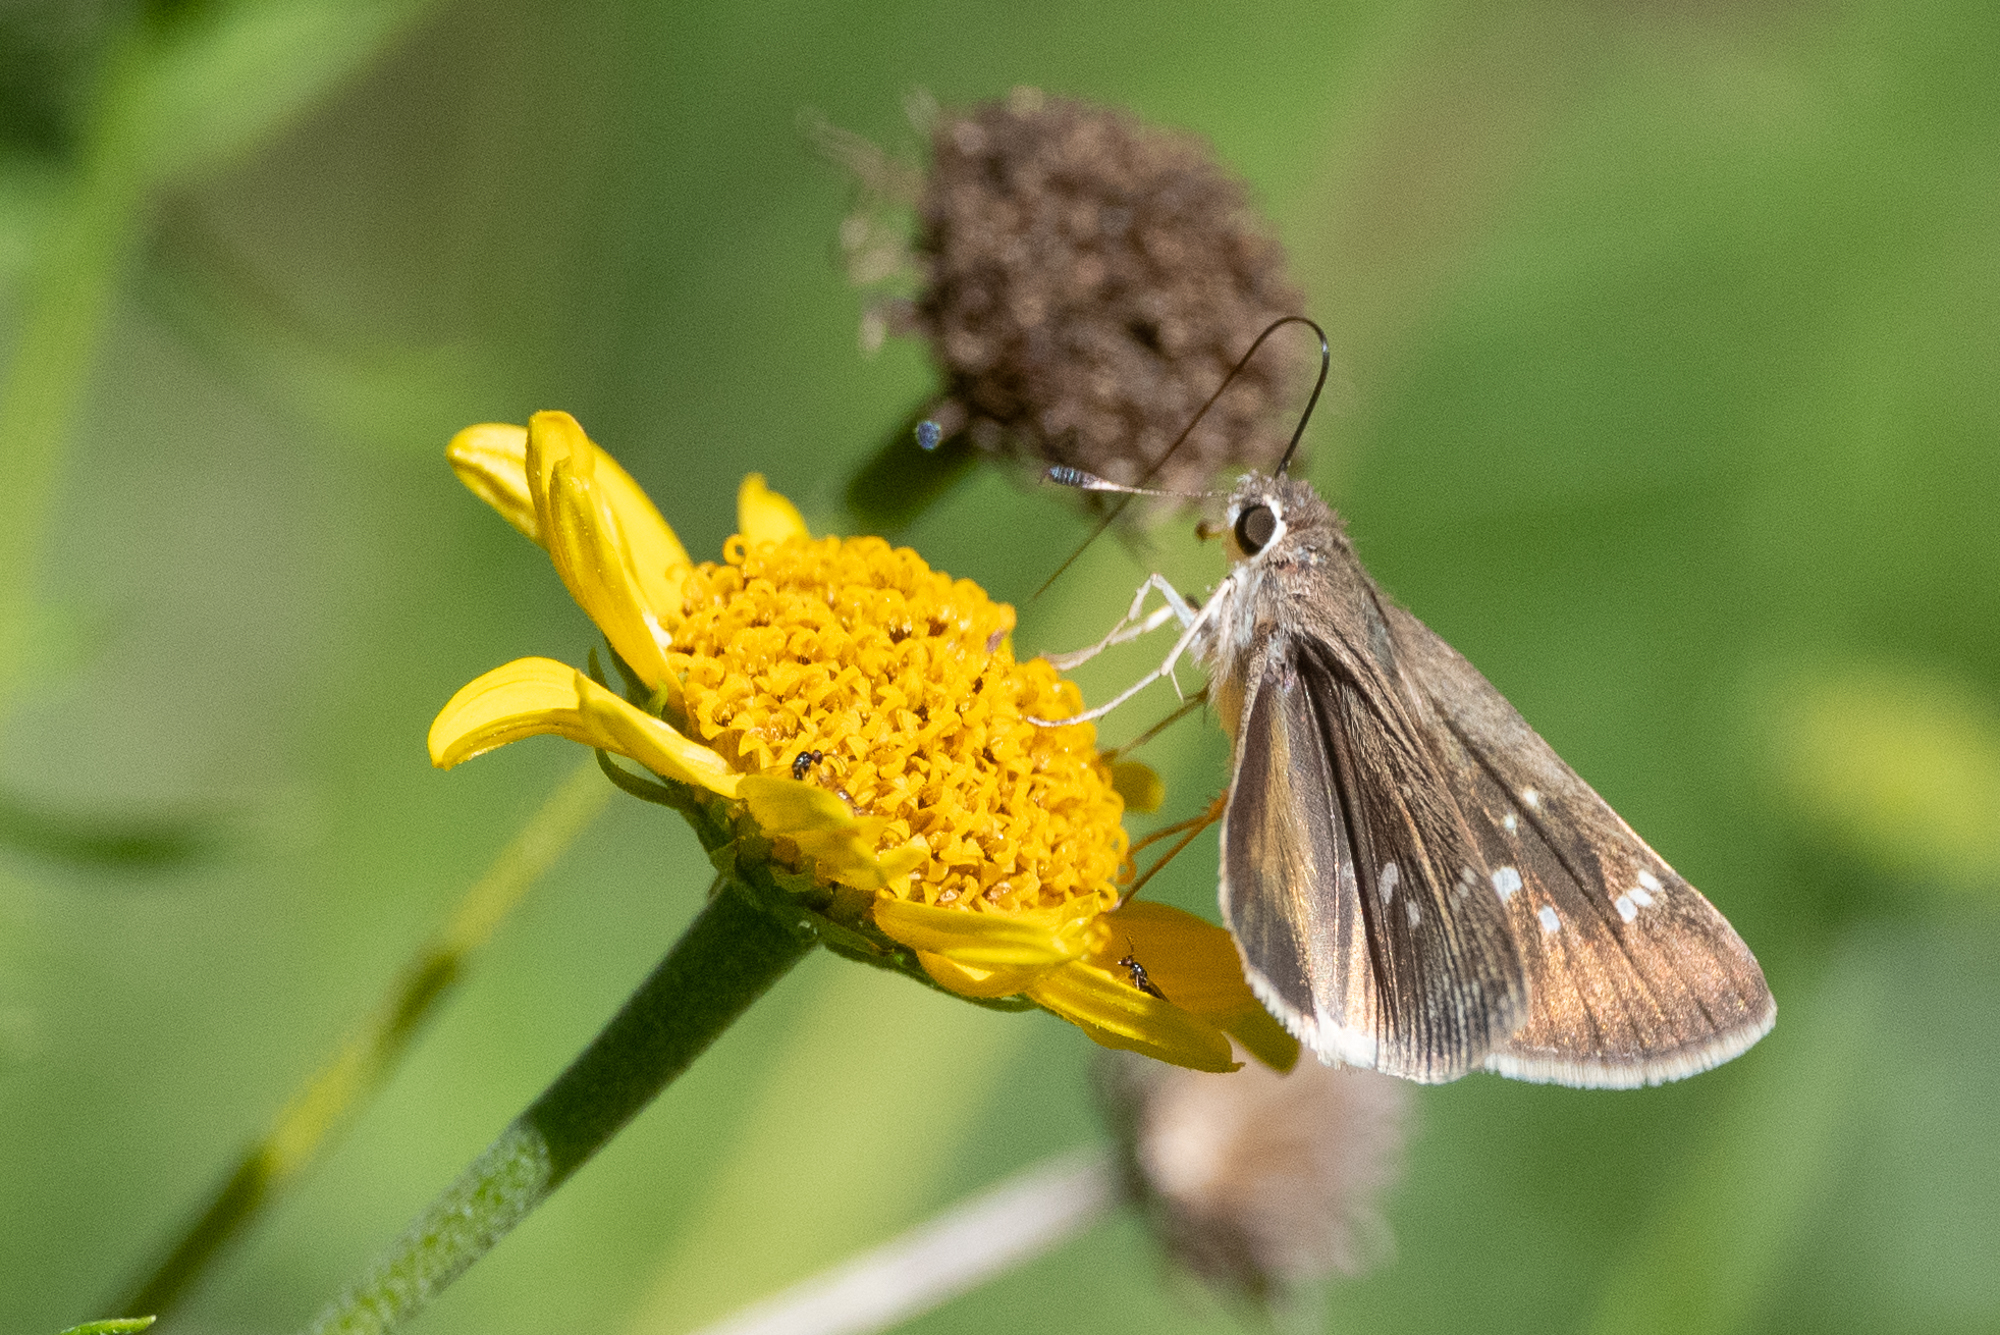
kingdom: Animalia
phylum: Arthropoda
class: Insecta
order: Lepidoptera
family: Hesperiidae
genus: Lerodea
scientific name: Lerodea eufala
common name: Eufala skipper
